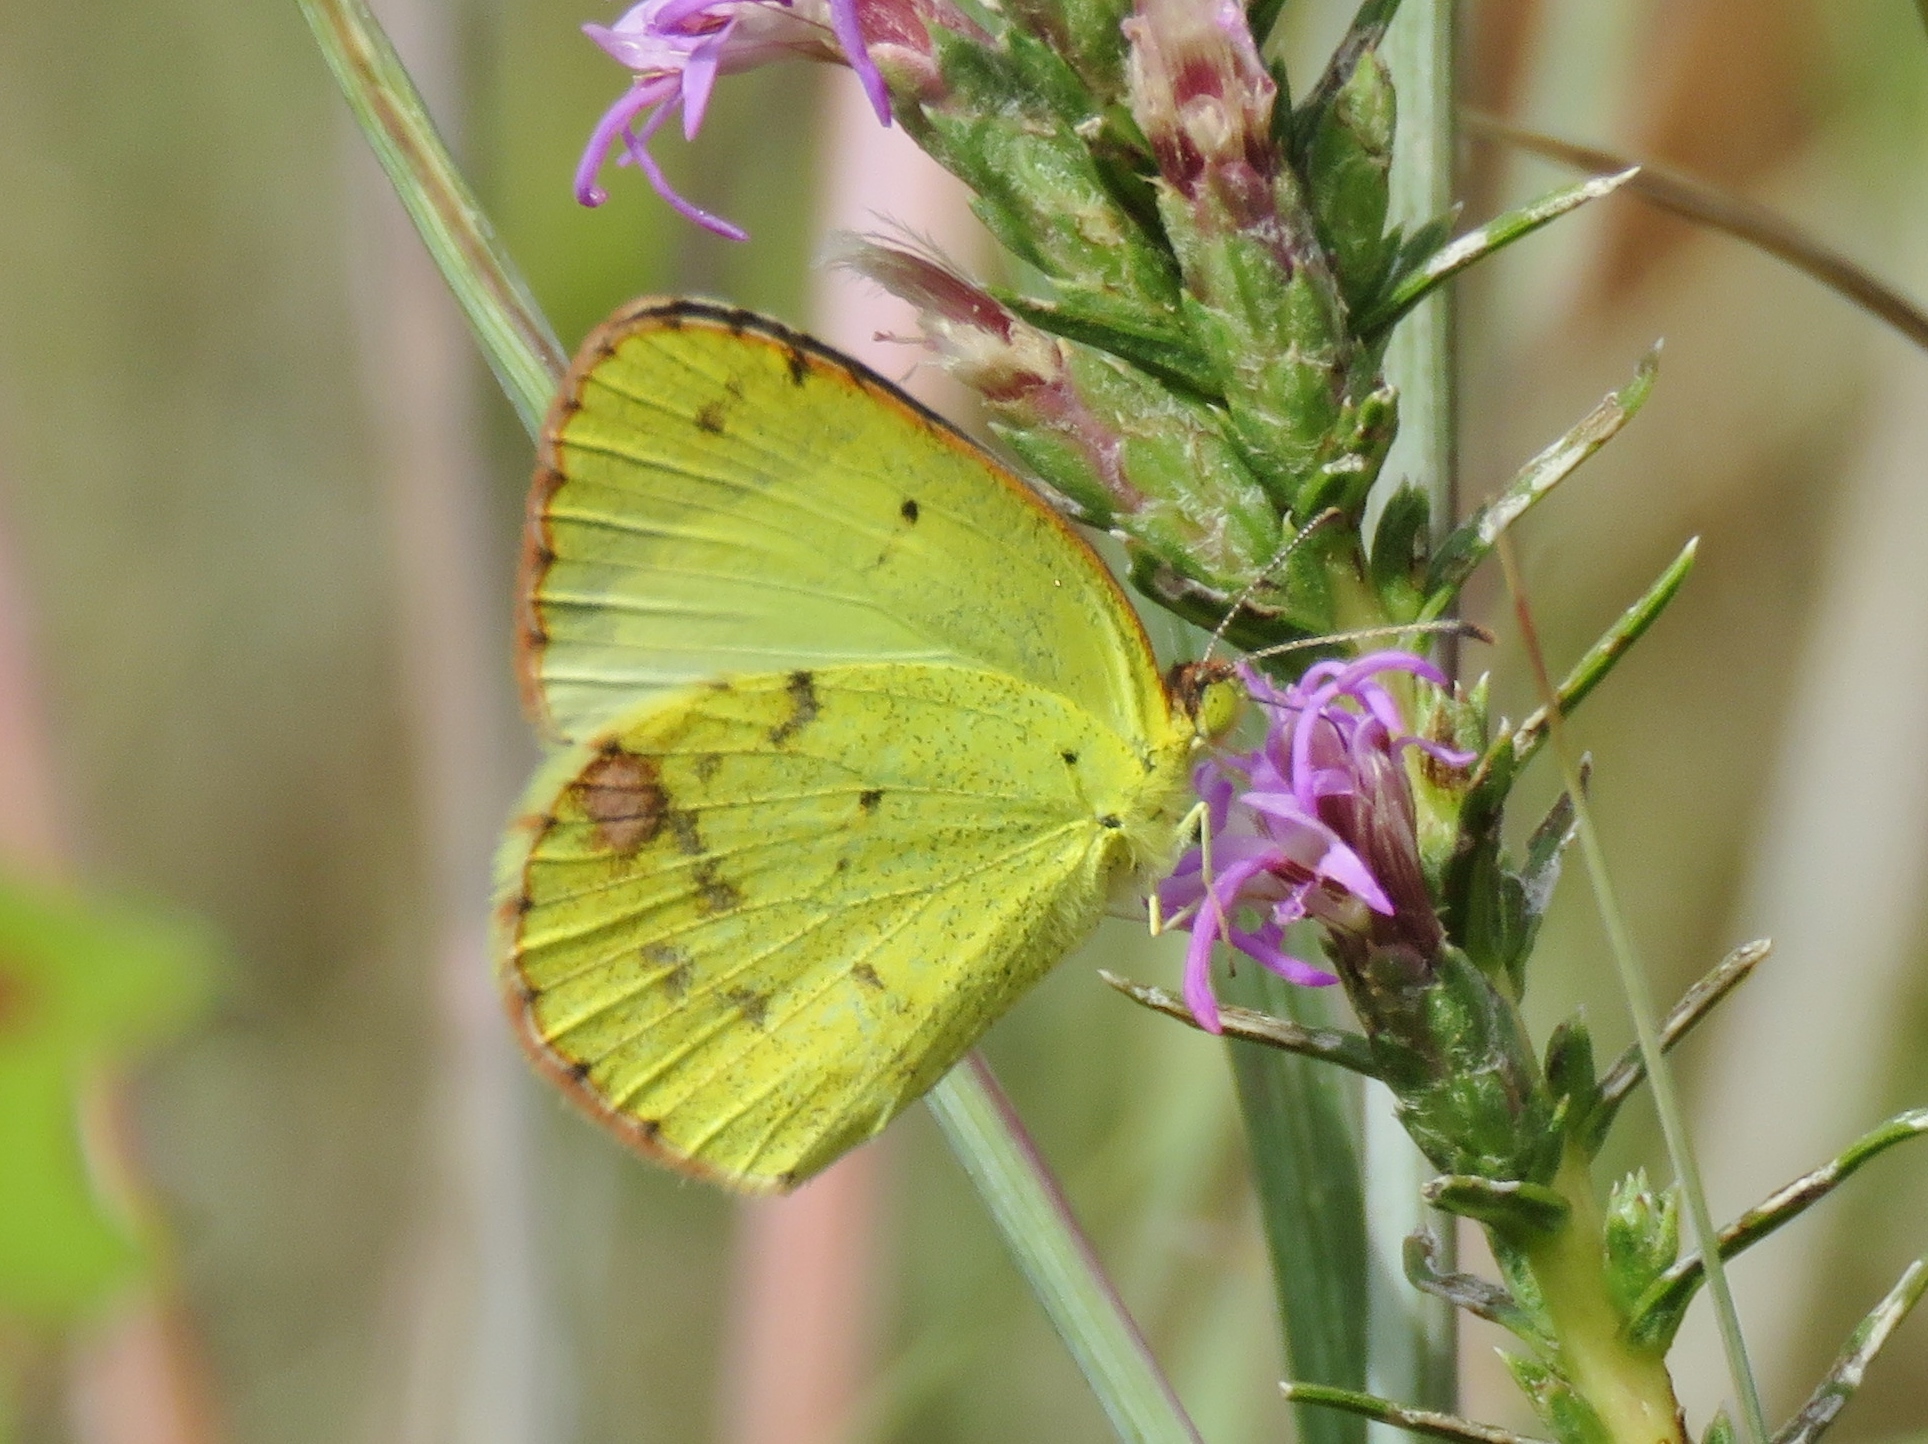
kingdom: Animalia
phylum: Arthropoda
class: Insecta
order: Lepidoptera
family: Pieridae
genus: Pyrisitia
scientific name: Pyrisitia lisa
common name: Little yellow
